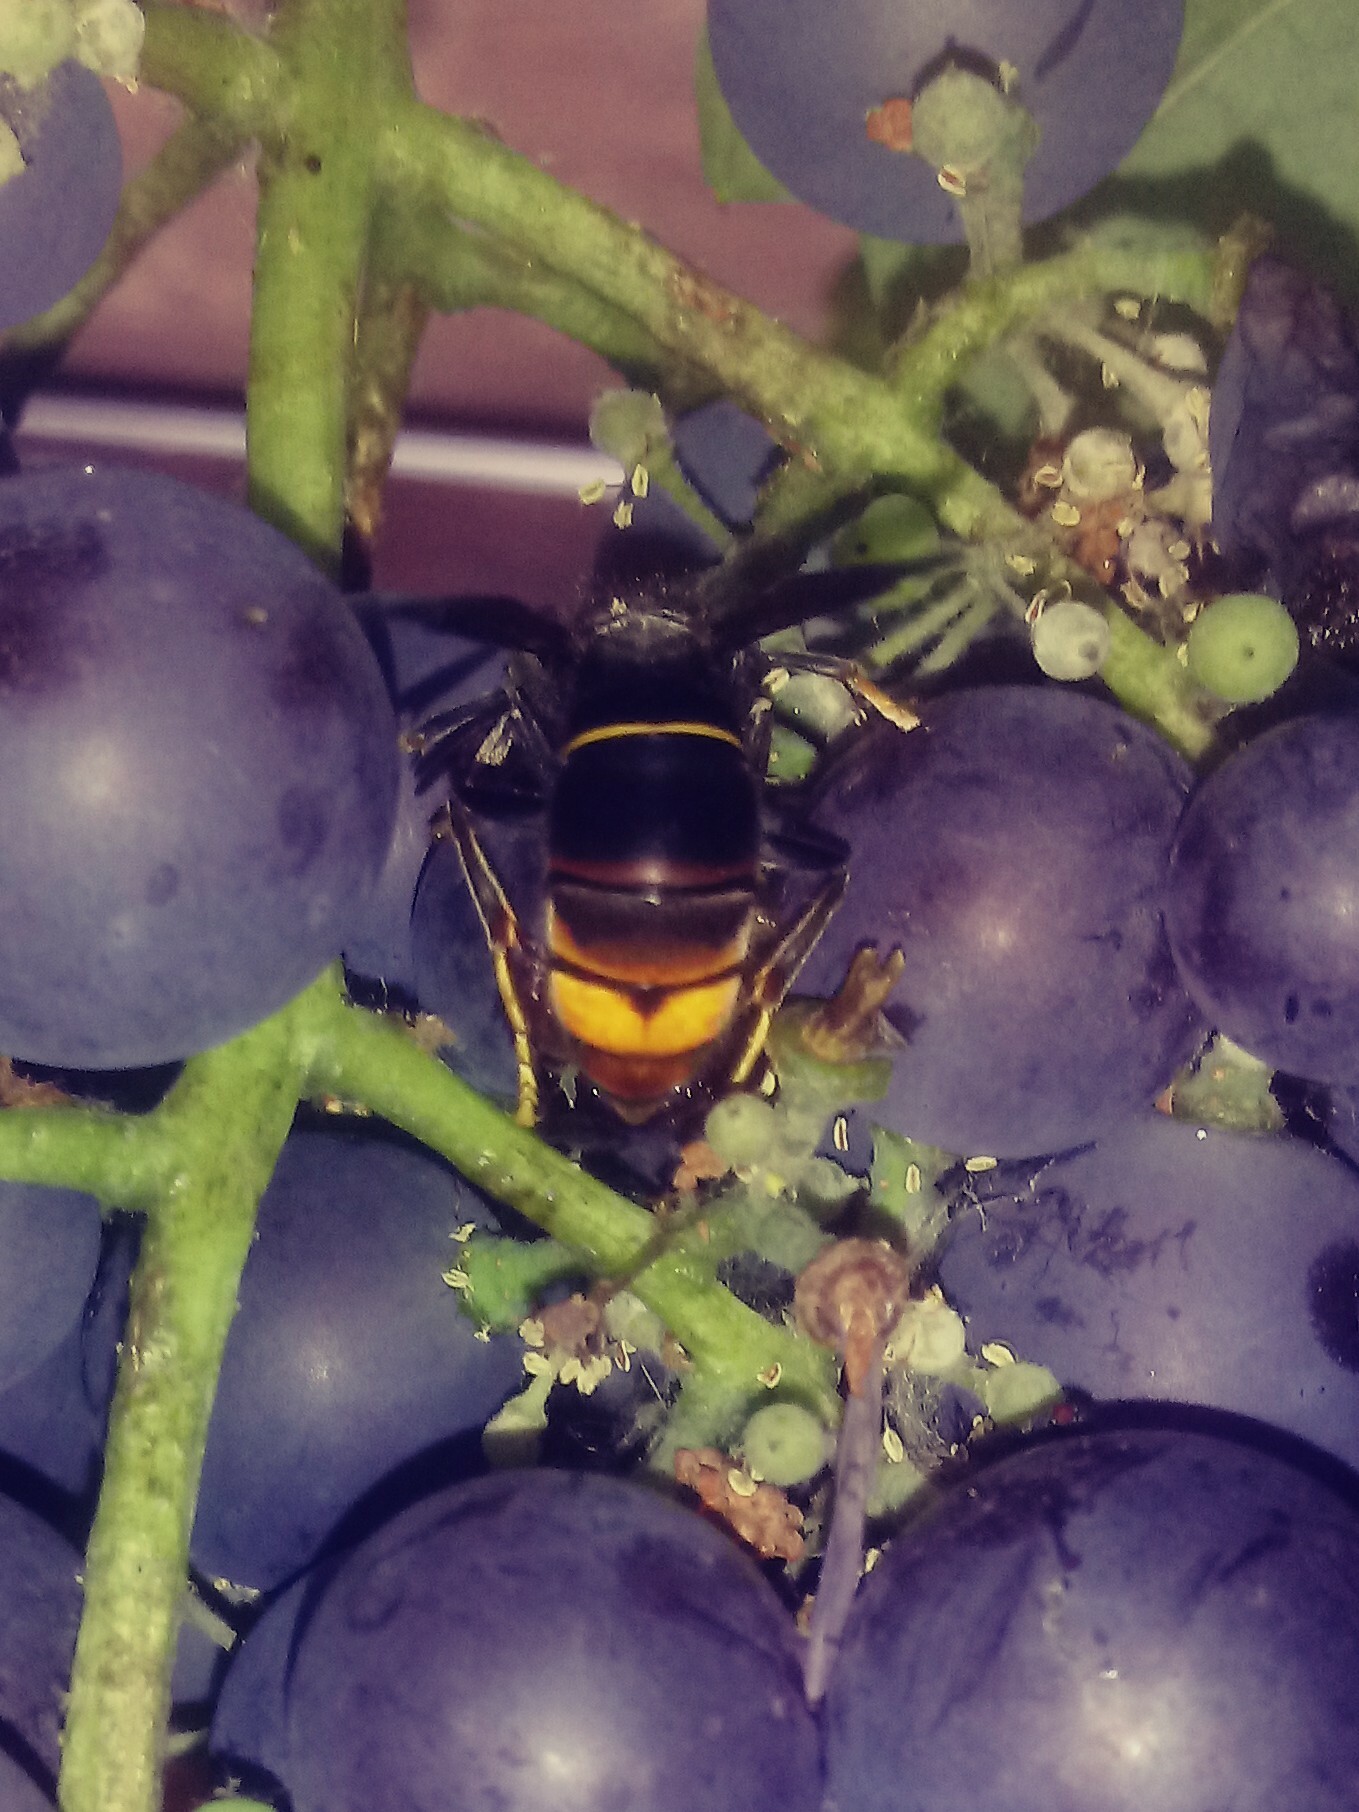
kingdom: Animalia
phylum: Arthropoda
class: Insecta
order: Hymenoptera
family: Vespidae
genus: Vespa
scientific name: Vespa velutina
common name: Asian hornet
